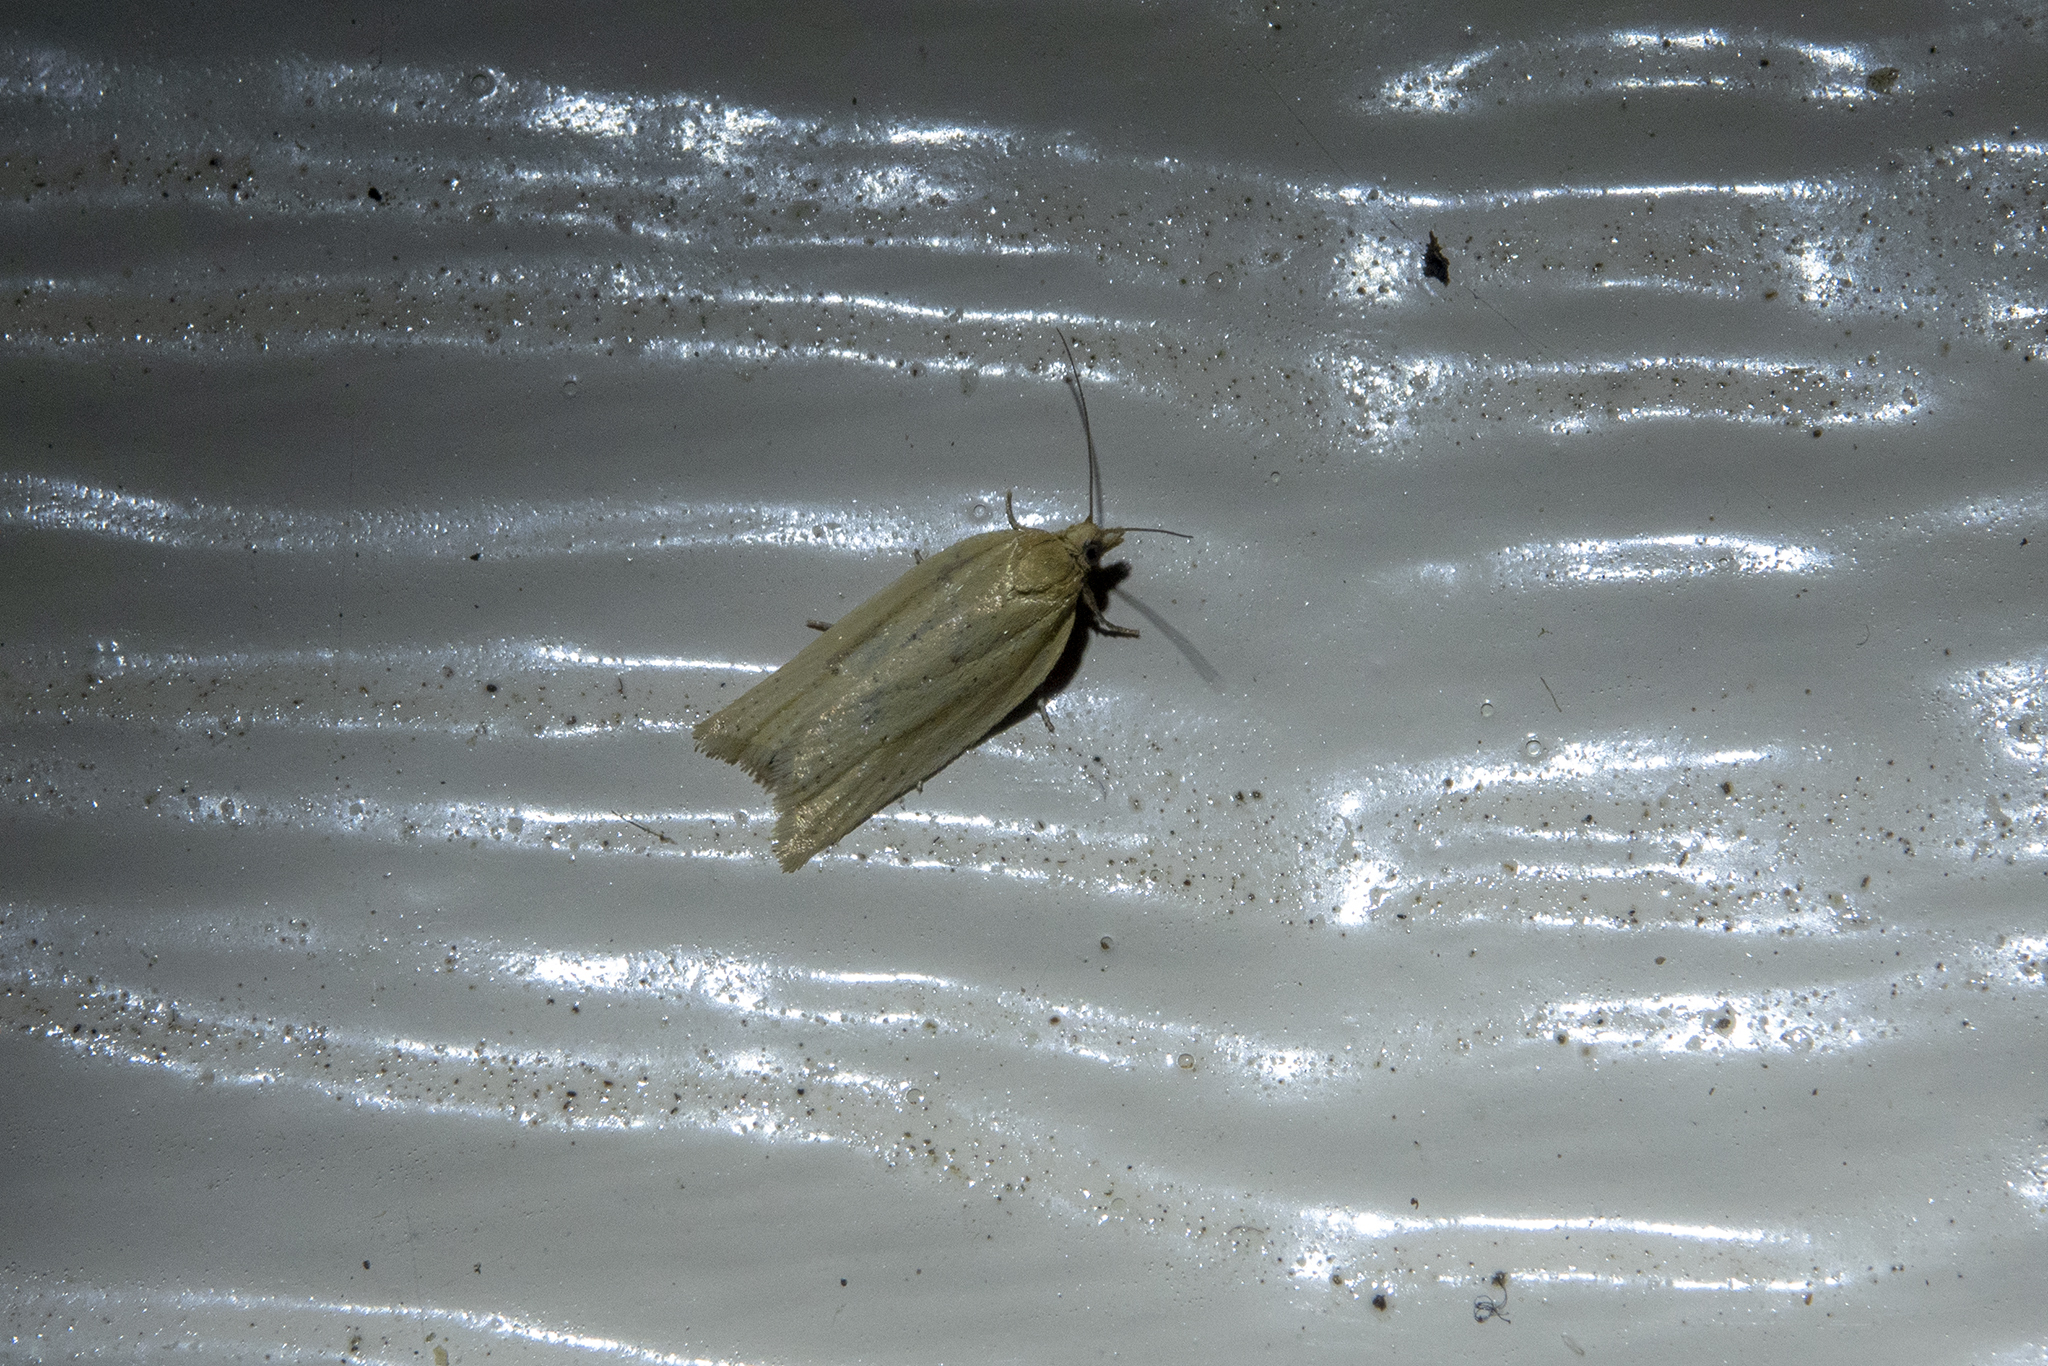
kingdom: Animalia
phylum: Arthropoda
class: Insecta
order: Lepidoptera
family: Tortricidae
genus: Clepsis
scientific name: Clepsis
